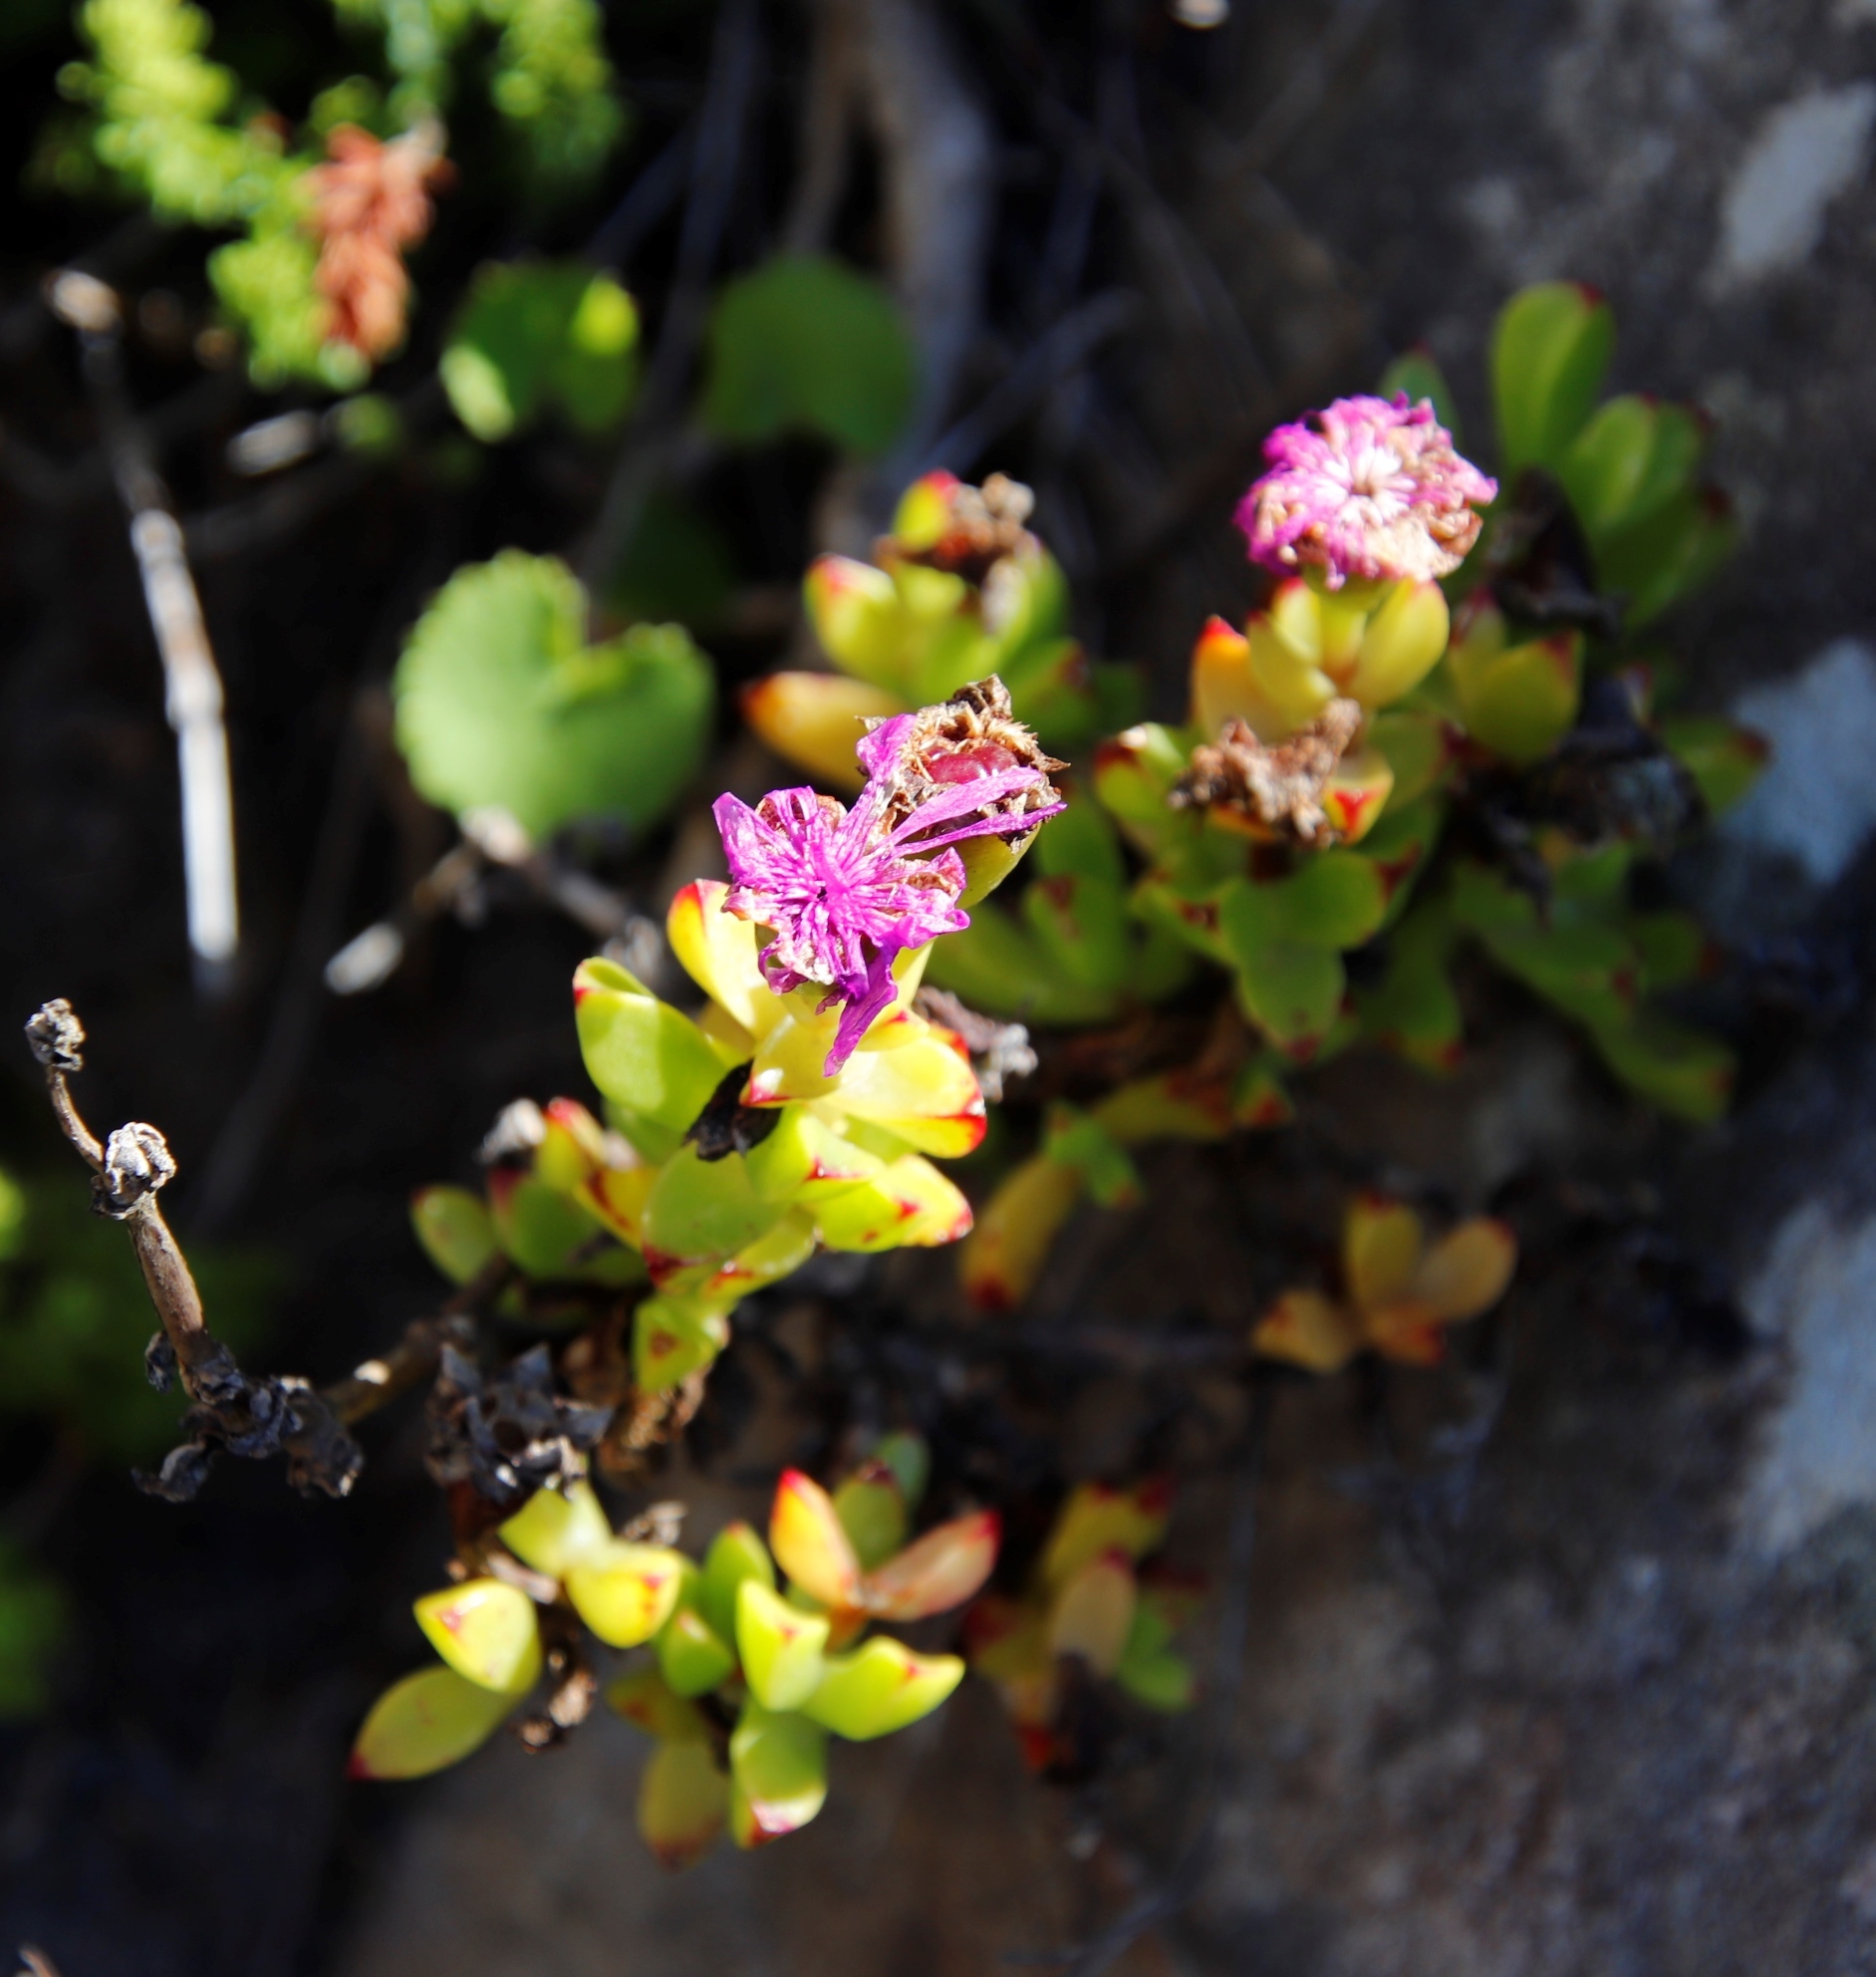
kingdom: Plantae
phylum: Tracheophyta
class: Magnoliopsida
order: Caryophyllales
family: Aizoaceae
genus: Erepsia
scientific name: Erepsia inclaudens
